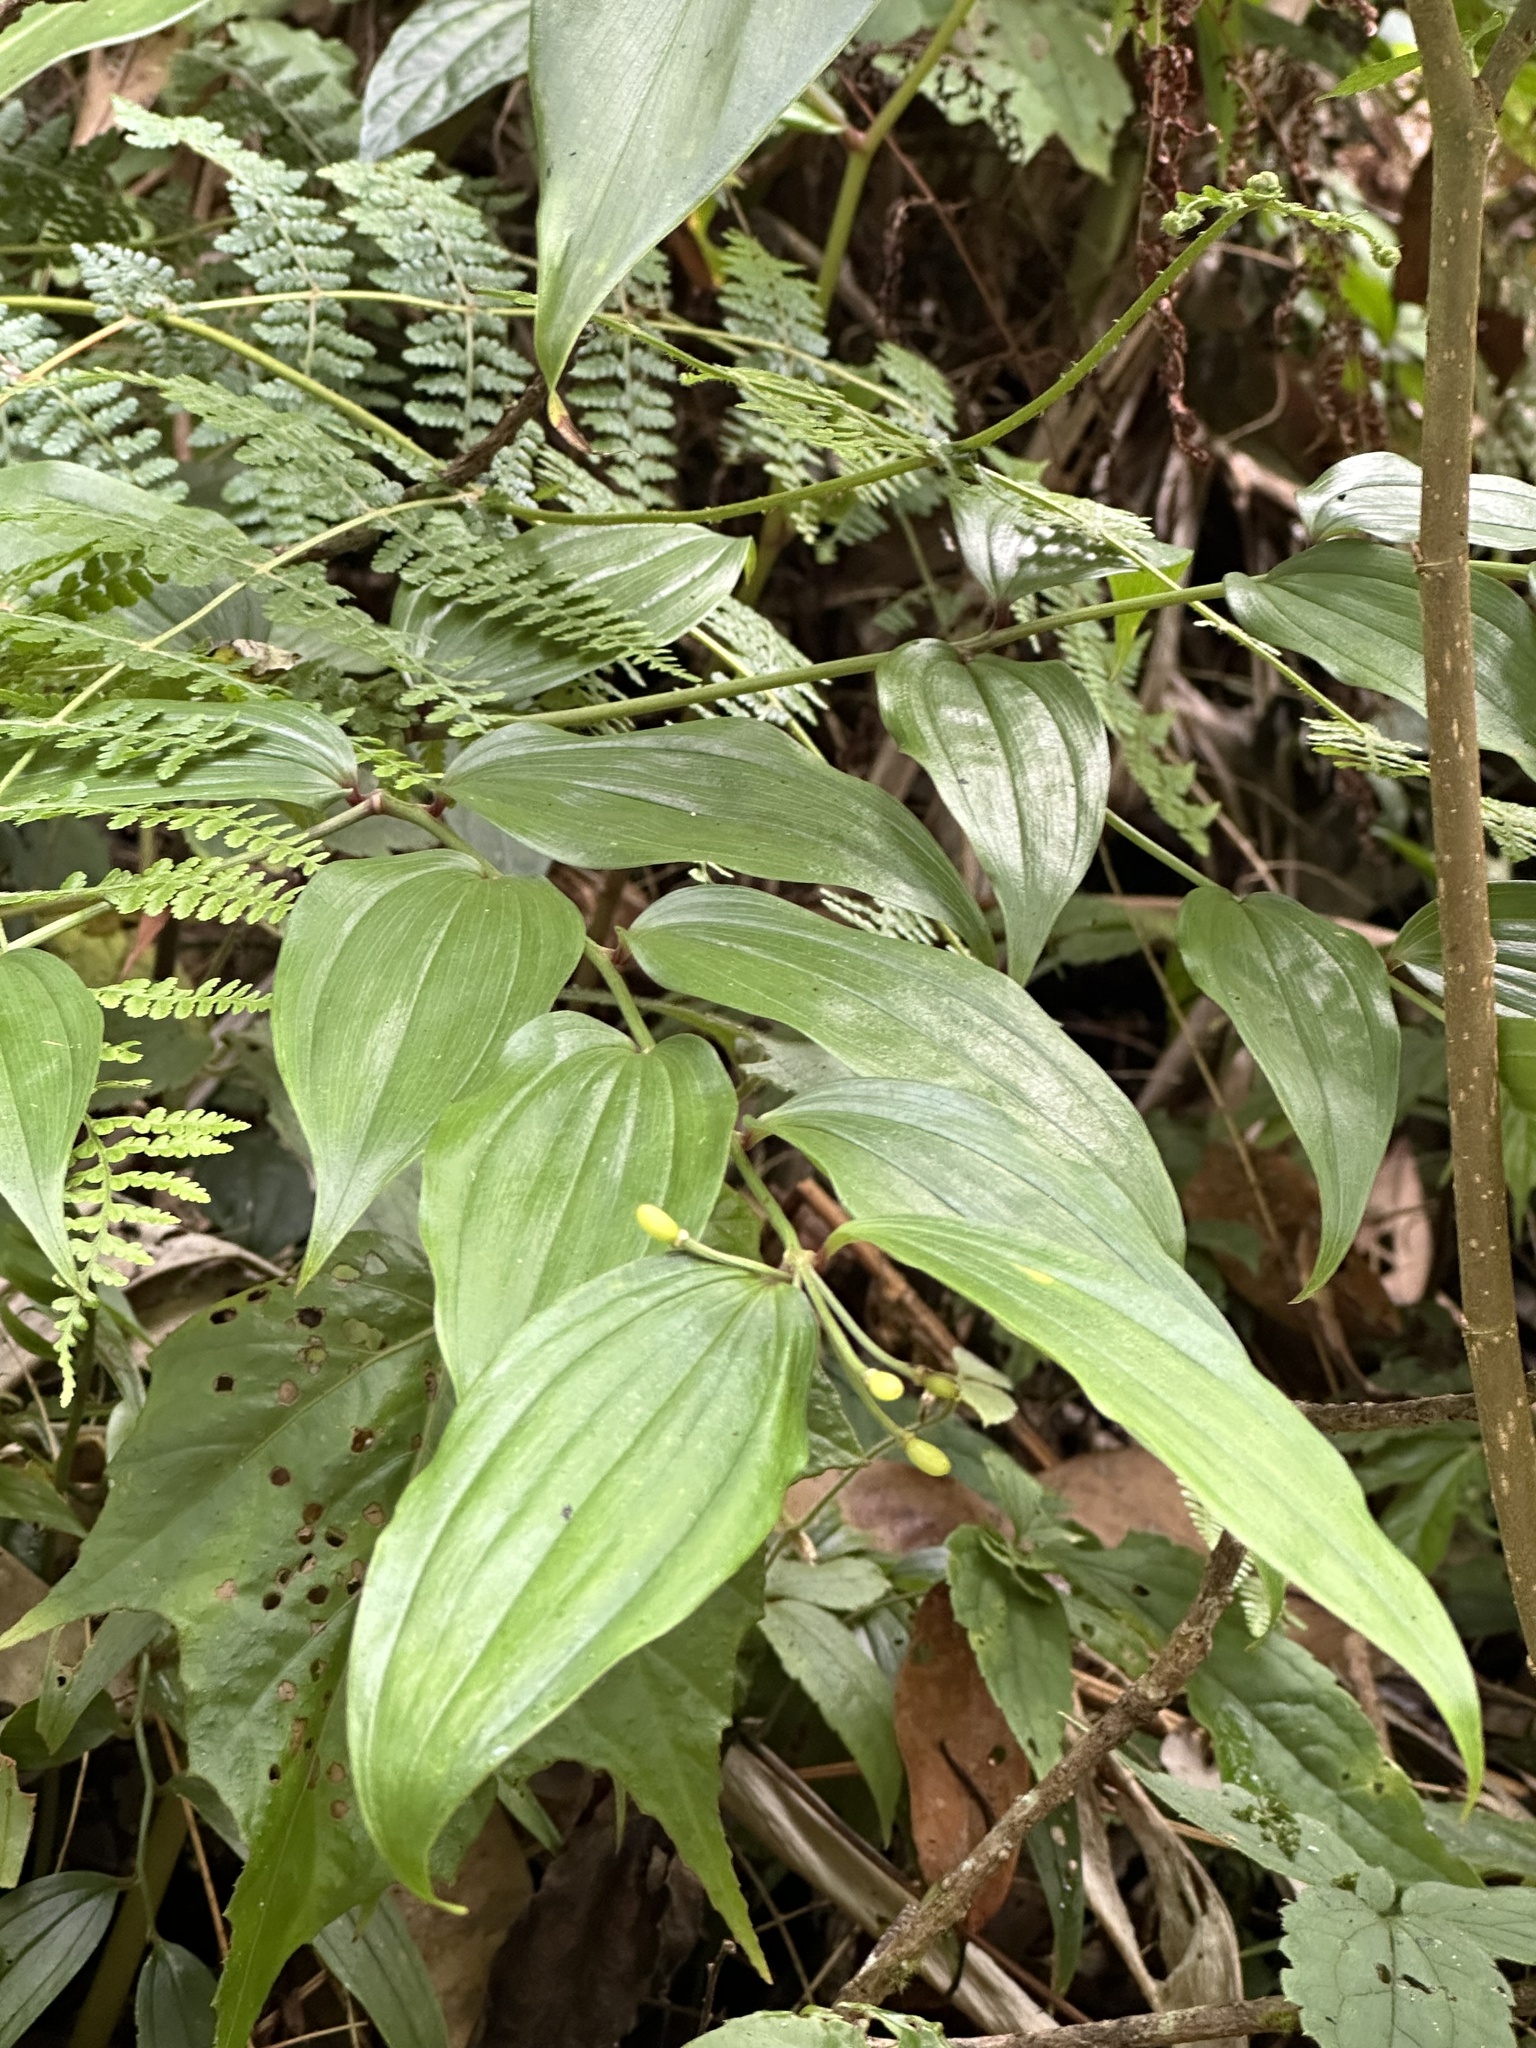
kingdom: Plantae
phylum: Tracheophyta
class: Liliopsida
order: Liliales
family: Colchicaceae
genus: Disporum
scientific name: Disporum kawakamii
